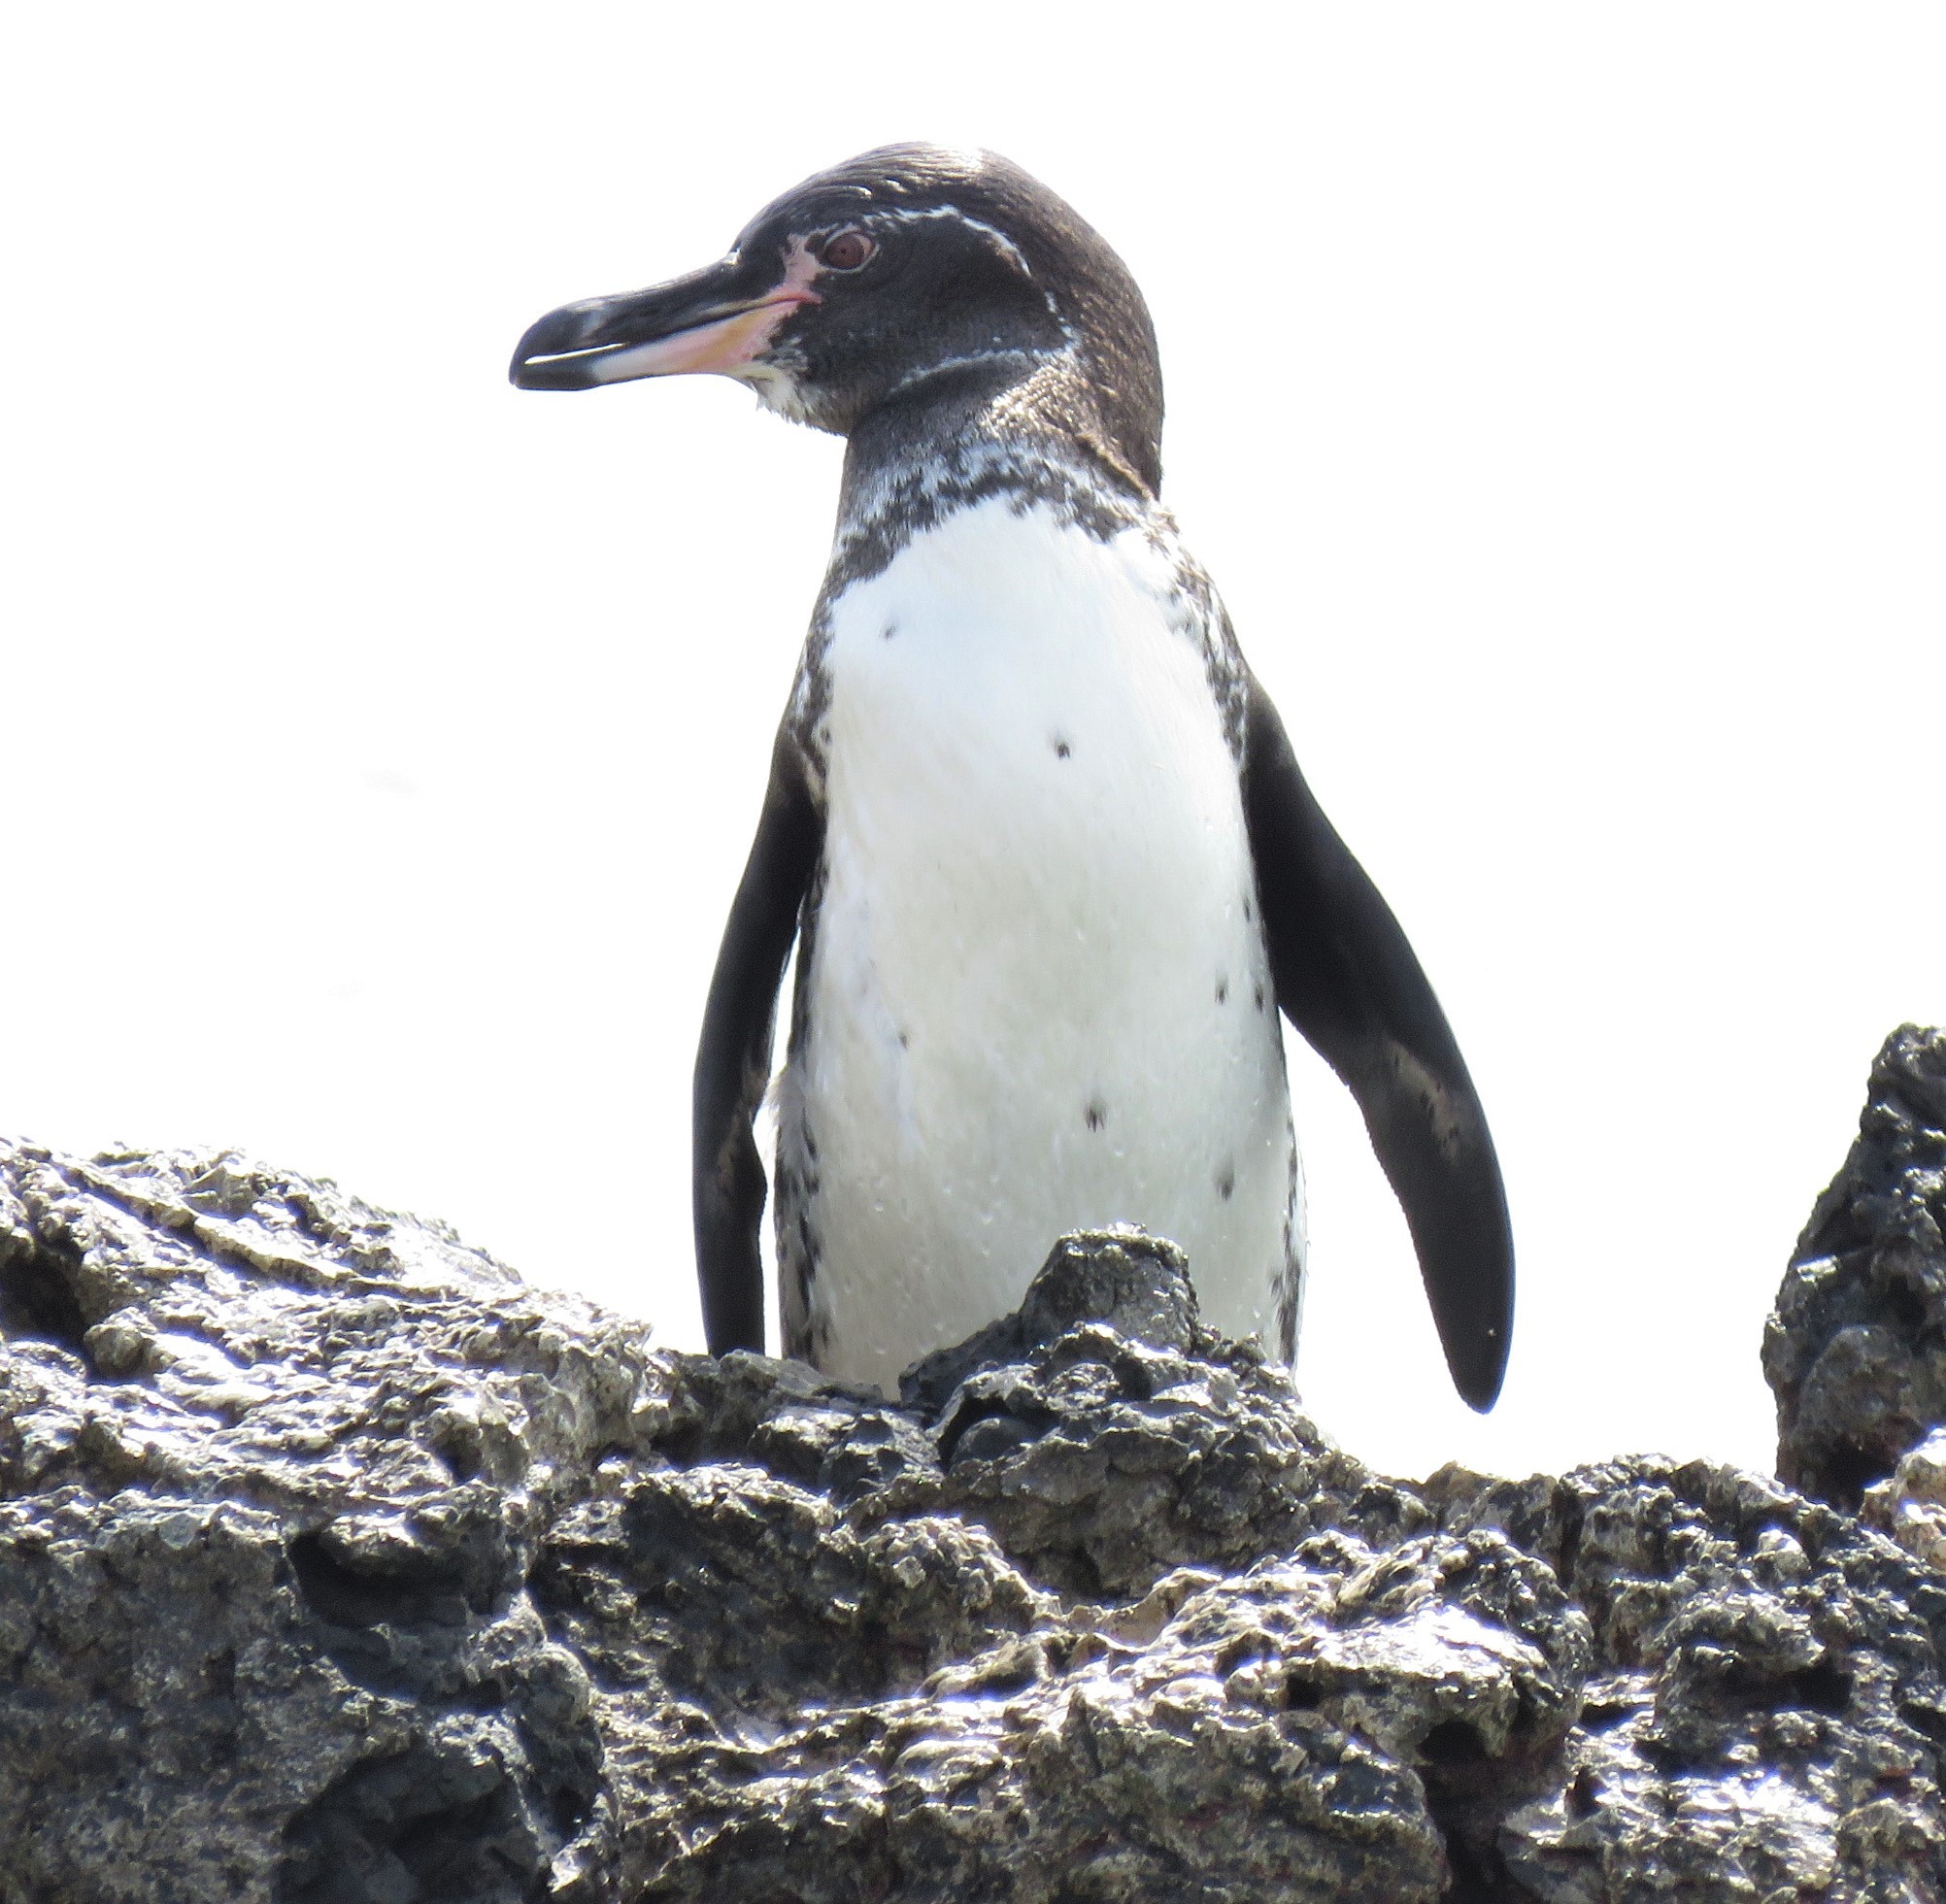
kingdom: Animalia
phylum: Chordata
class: Aves
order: Sphenisciformes
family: Spheniscidae
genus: Spheniscus
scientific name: Spheniscus mendiculus
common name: Galapagos penguin
